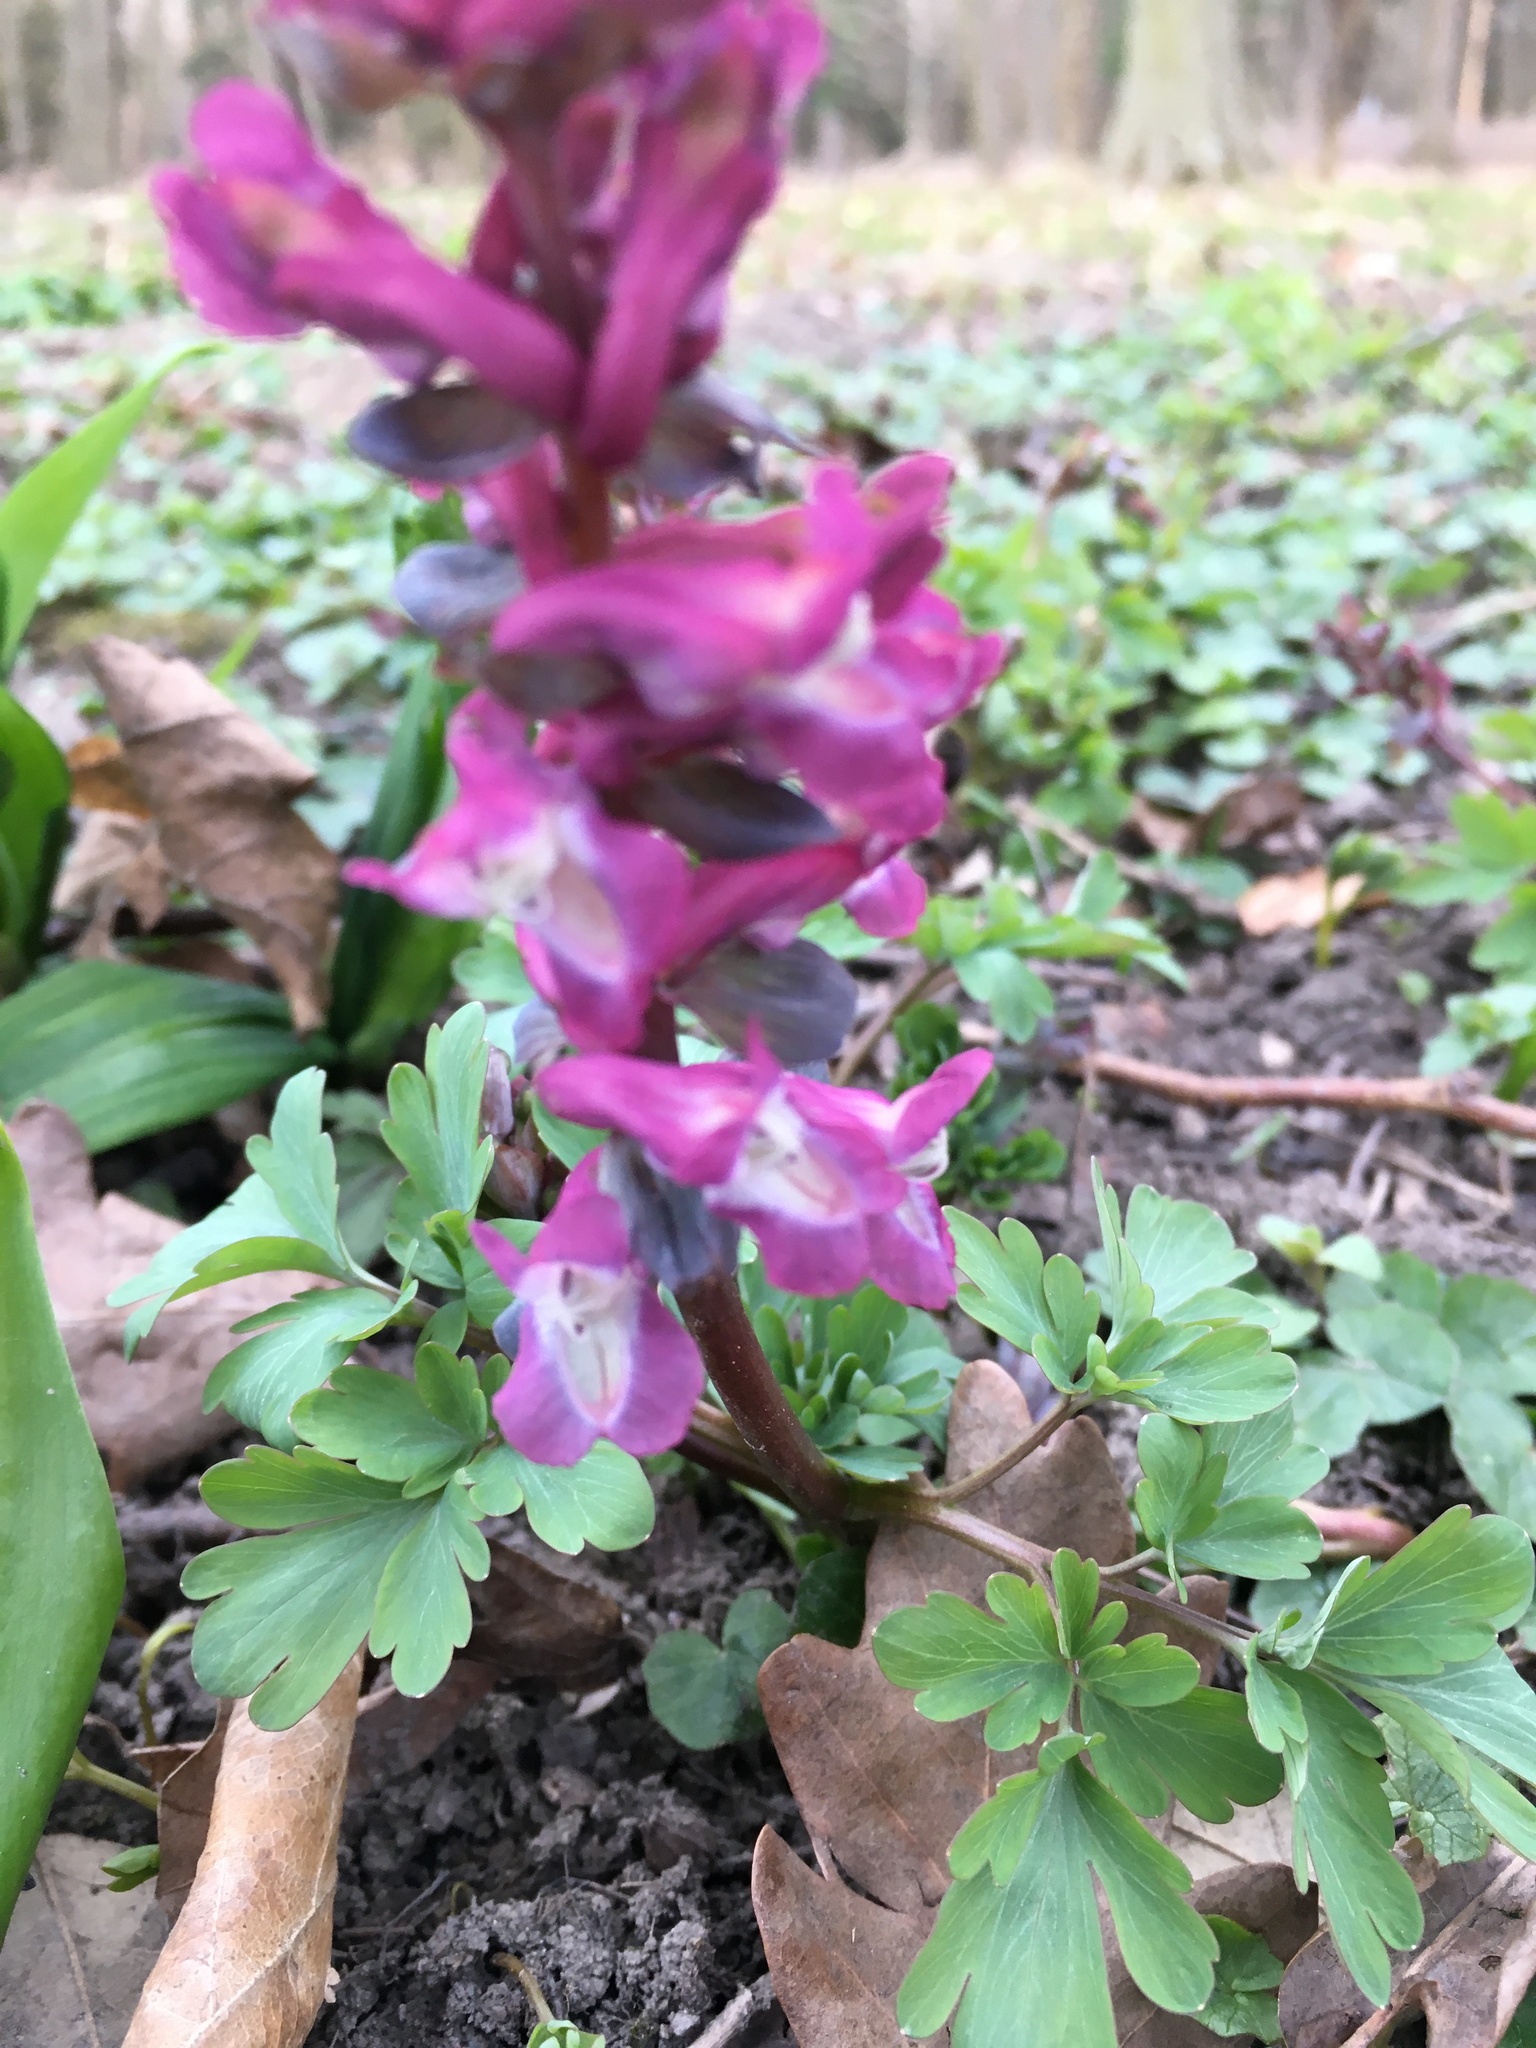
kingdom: Plantae
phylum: Tracheophyta
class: Magnoliopsida
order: Ranunculales
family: Papaveraceae
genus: Corydalis
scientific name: Corydalis cava
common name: Hollowroot
